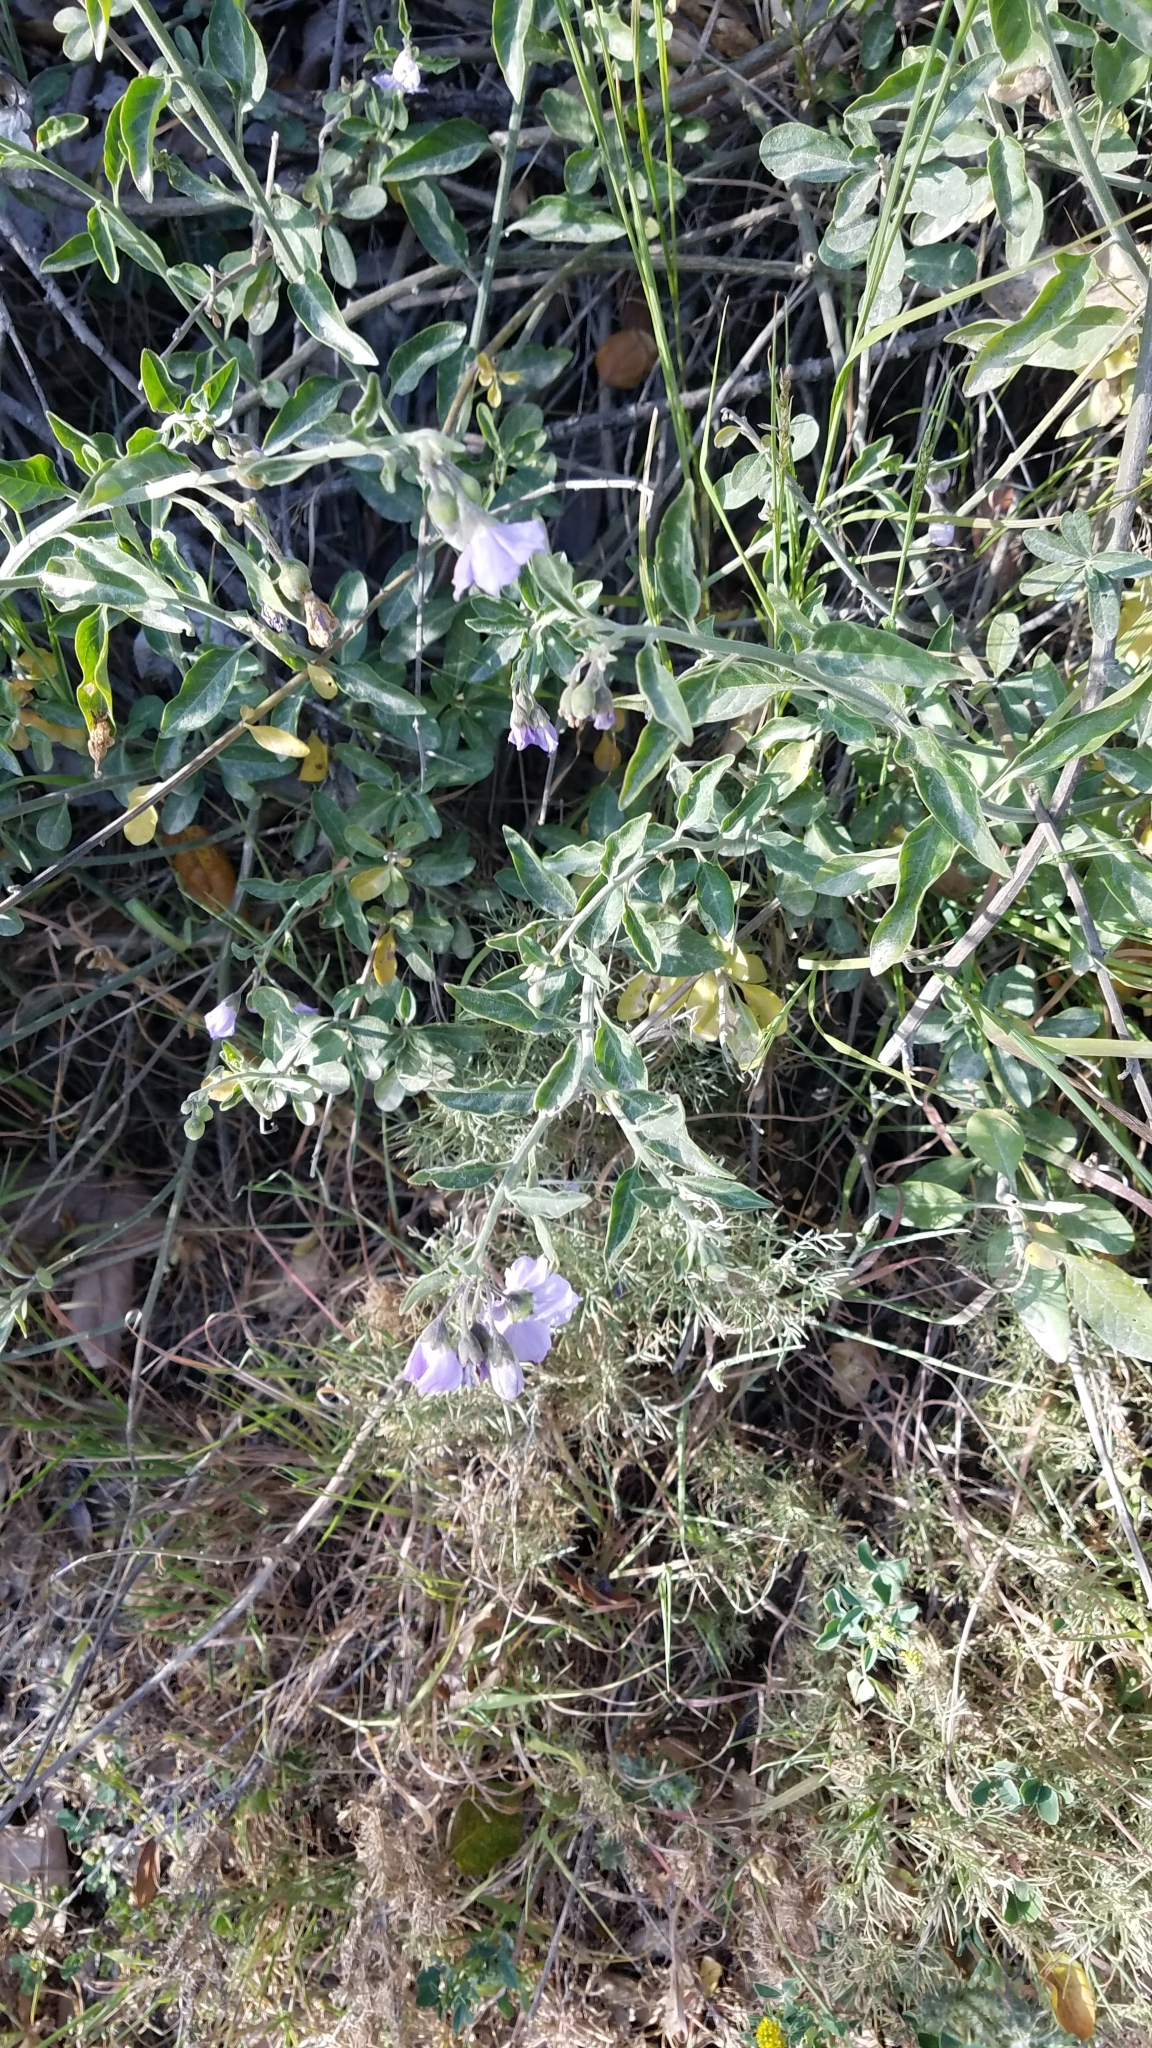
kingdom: Plantae
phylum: Tracheophyta
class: Magnoliopsida
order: Solanales
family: Solanaceae
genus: Solanum
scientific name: Solanum umbelliferum
